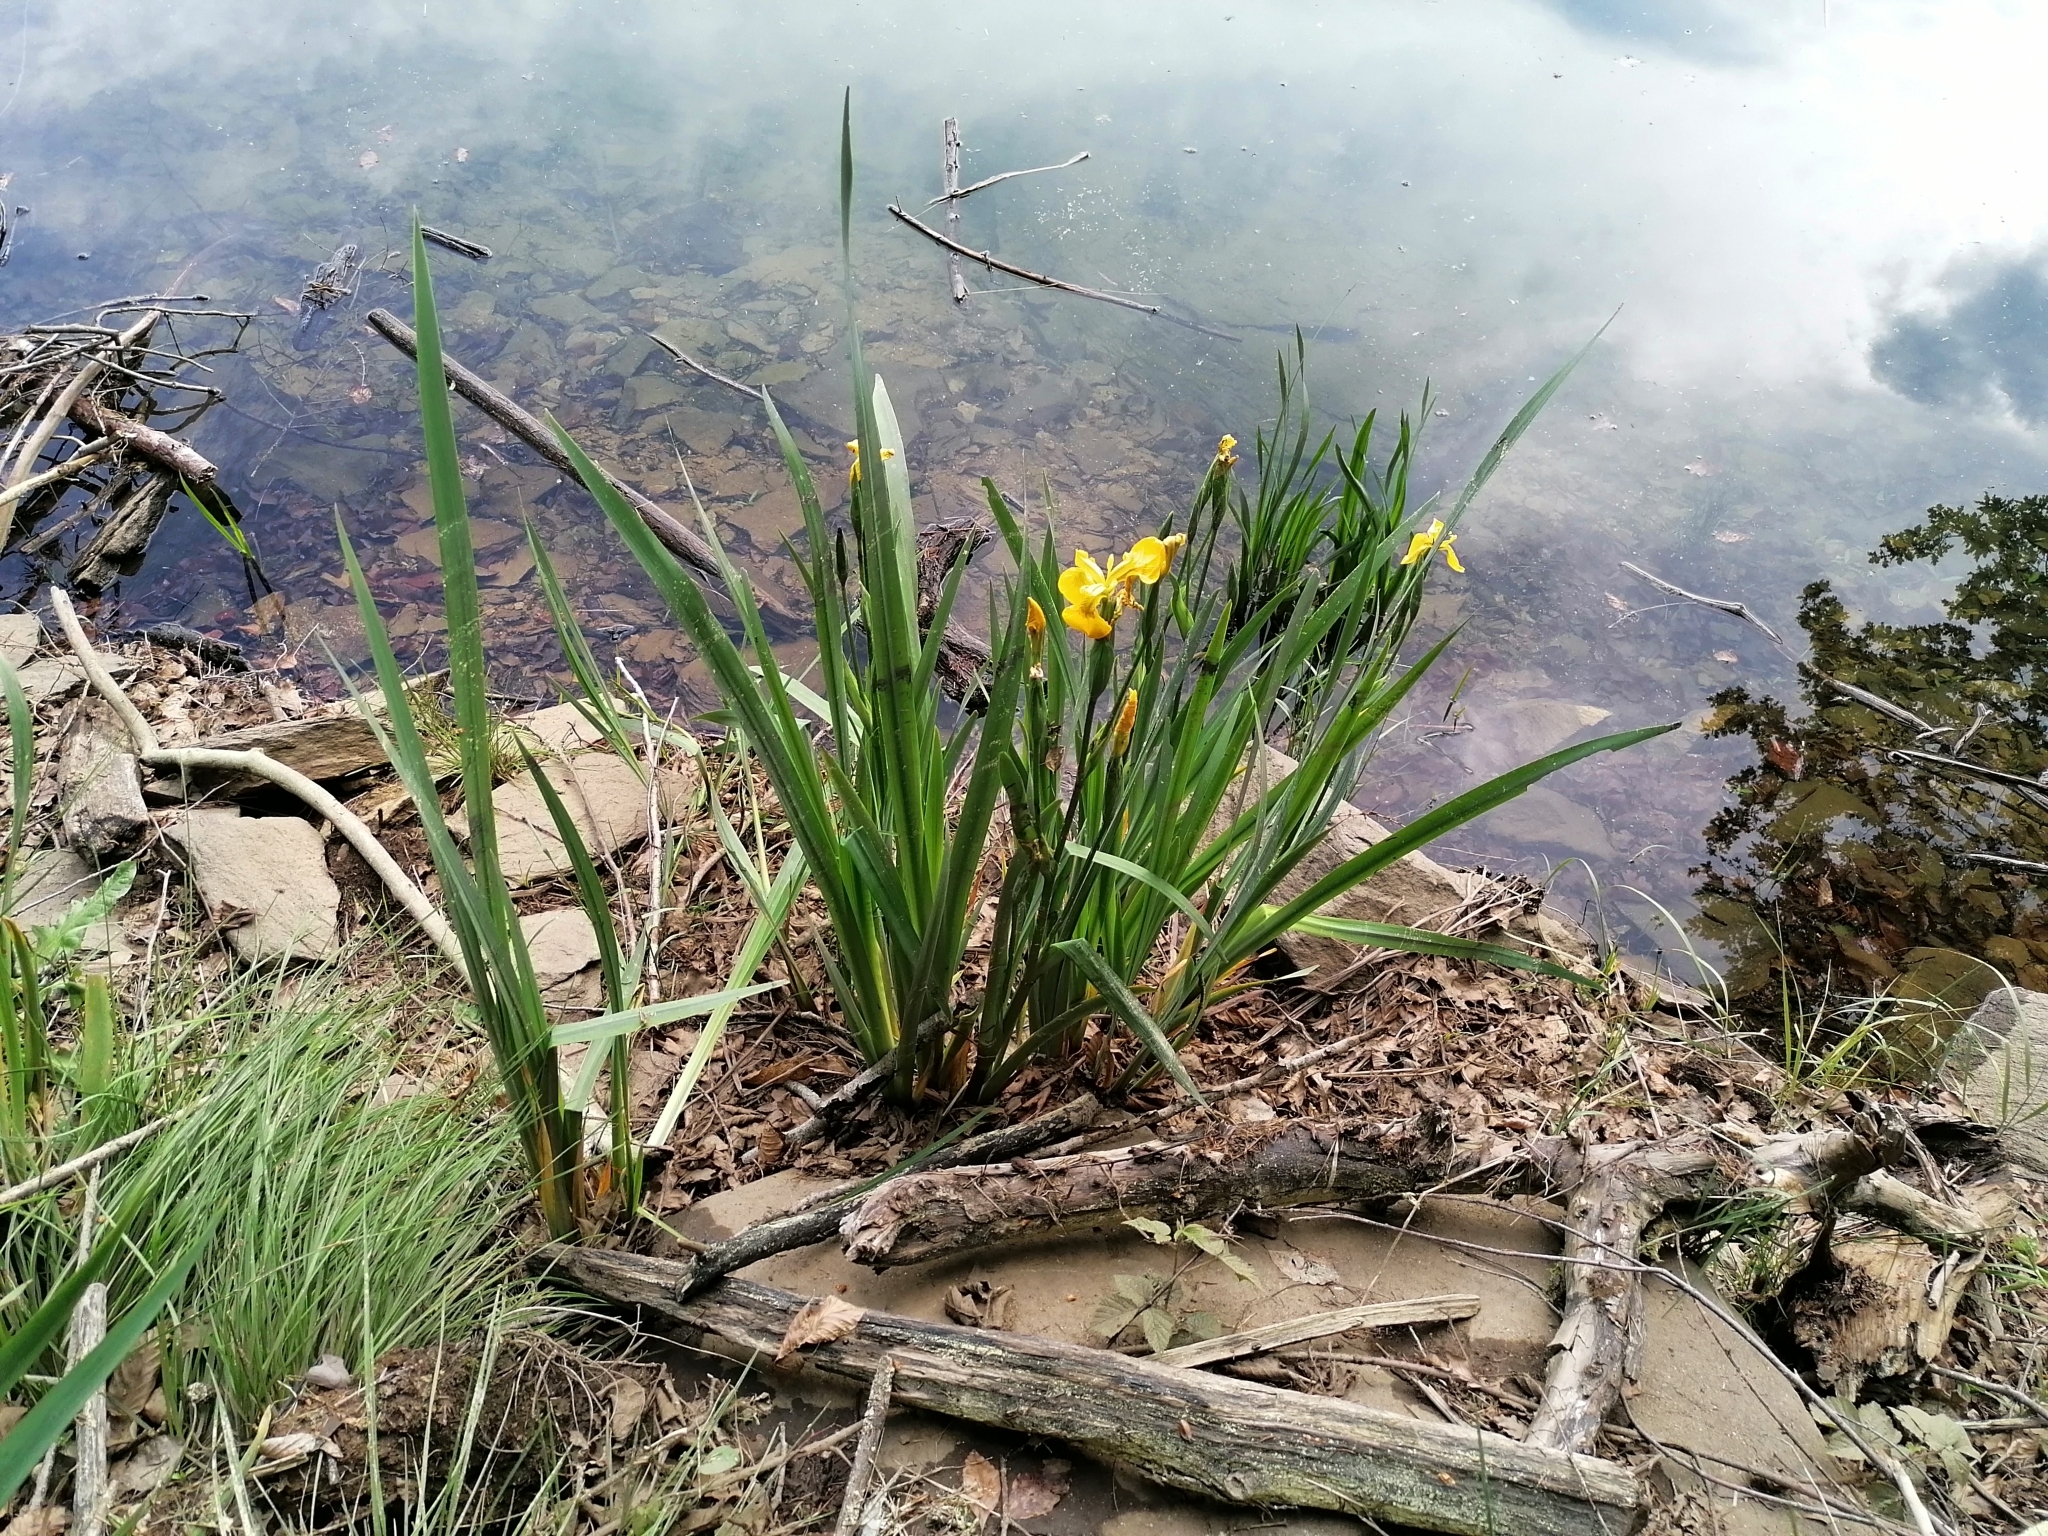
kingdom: Plantae
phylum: Tracheophyta
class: Liliopsida
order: Asparagales
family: Iridaceae
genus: Iris
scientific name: Iris pseudacorus
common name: Yellow flag
